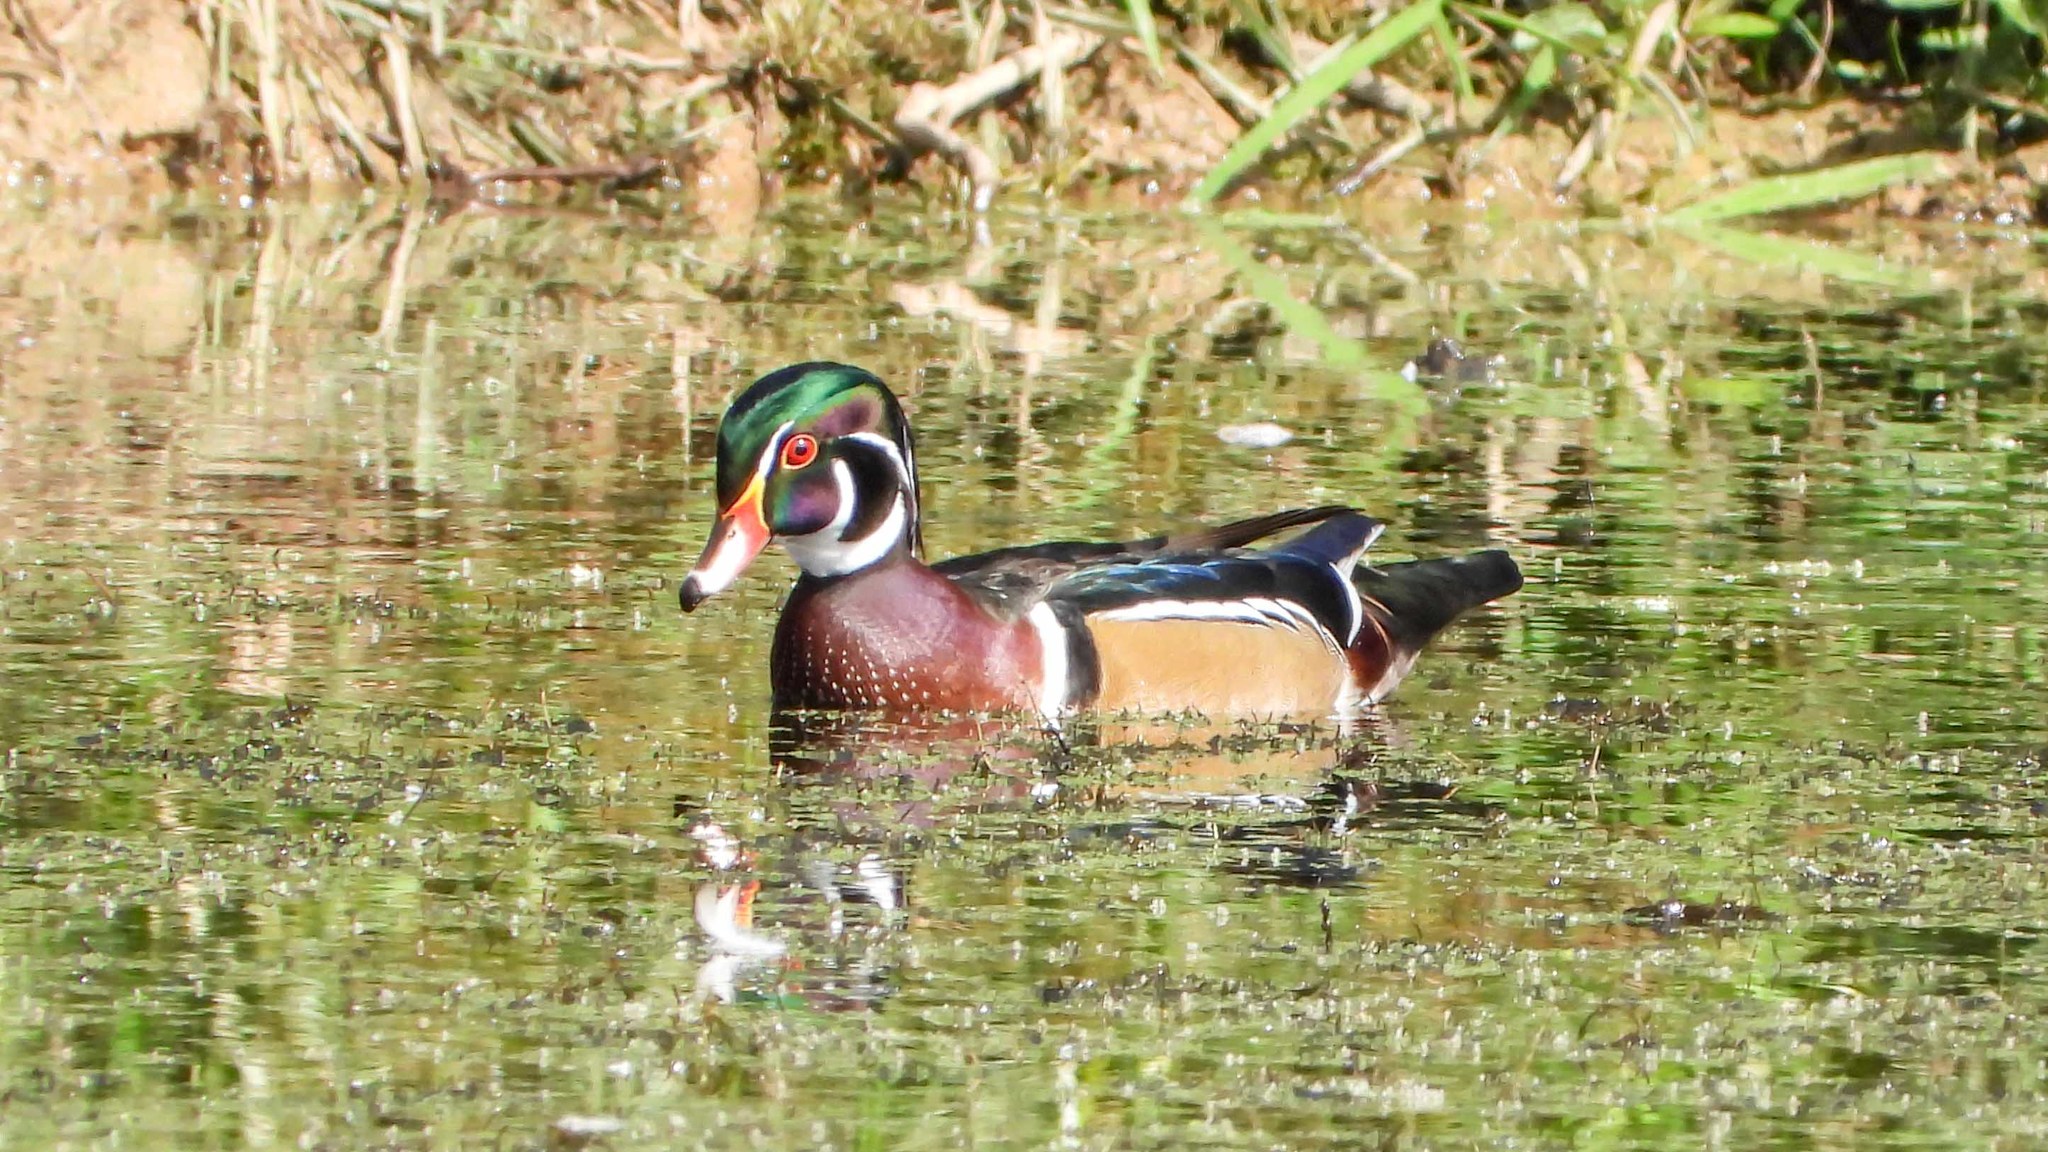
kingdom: Animalia
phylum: Chordata
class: Aves
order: Anseriformes
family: Anatidae
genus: Aix
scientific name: Aix sponsa
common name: Wood duck
